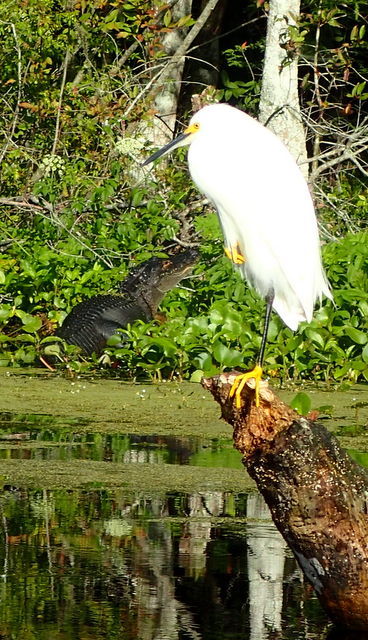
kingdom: Animalia
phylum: Chordata
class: Aves
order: Pelecaniformes
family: Ardeidae
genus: Egretta
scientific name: Egretta thula
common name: Snowy egret
